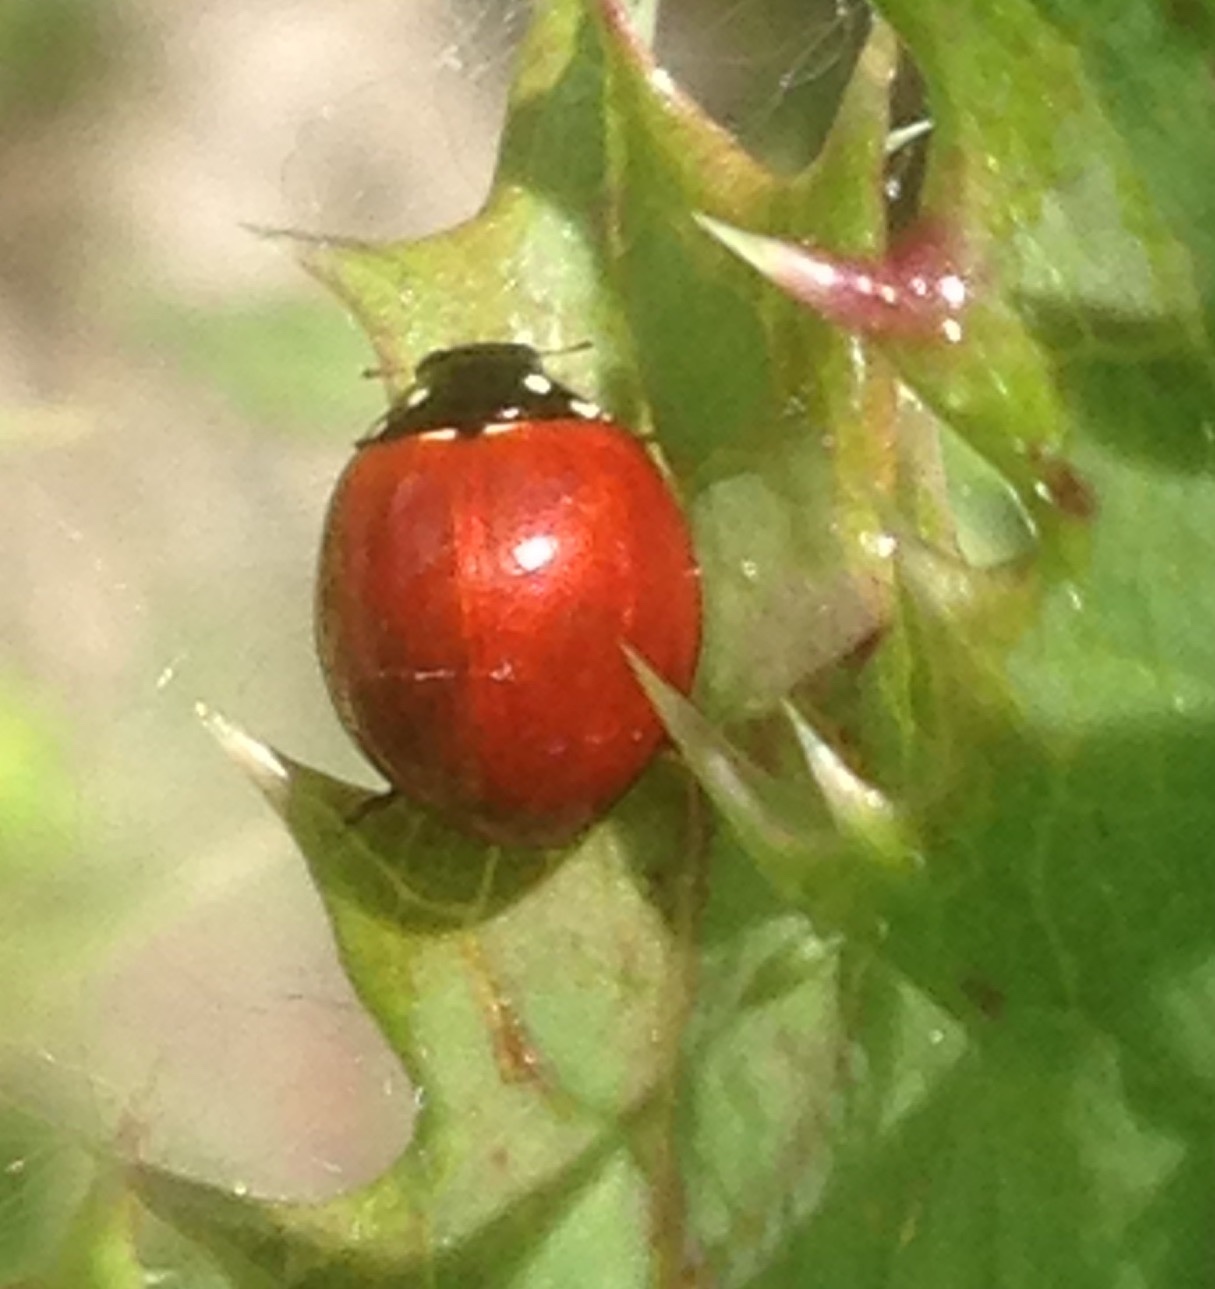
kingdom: Animalia
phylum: Arthropoda
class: Insecta
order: Coleoptera
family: Coccinellidae
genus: Cycloneda
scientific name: Cycloneda sanguinea
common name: Ladybird beetle
